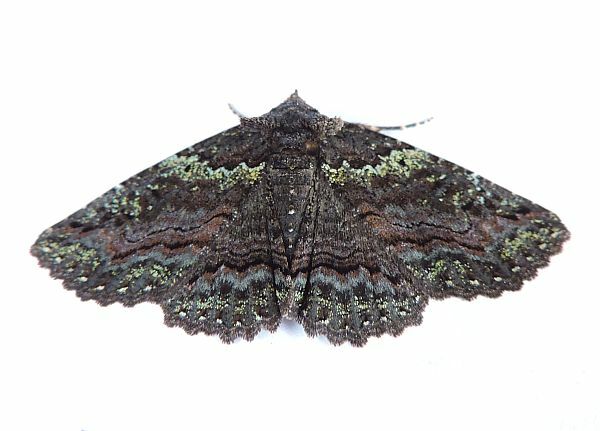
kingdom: Animalia
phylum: Arthropoda
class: Insecta
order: Lepidoptera
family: Erebidae
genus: Zale
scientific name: Zale aeruginosa
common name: Green-dusted zale moth
